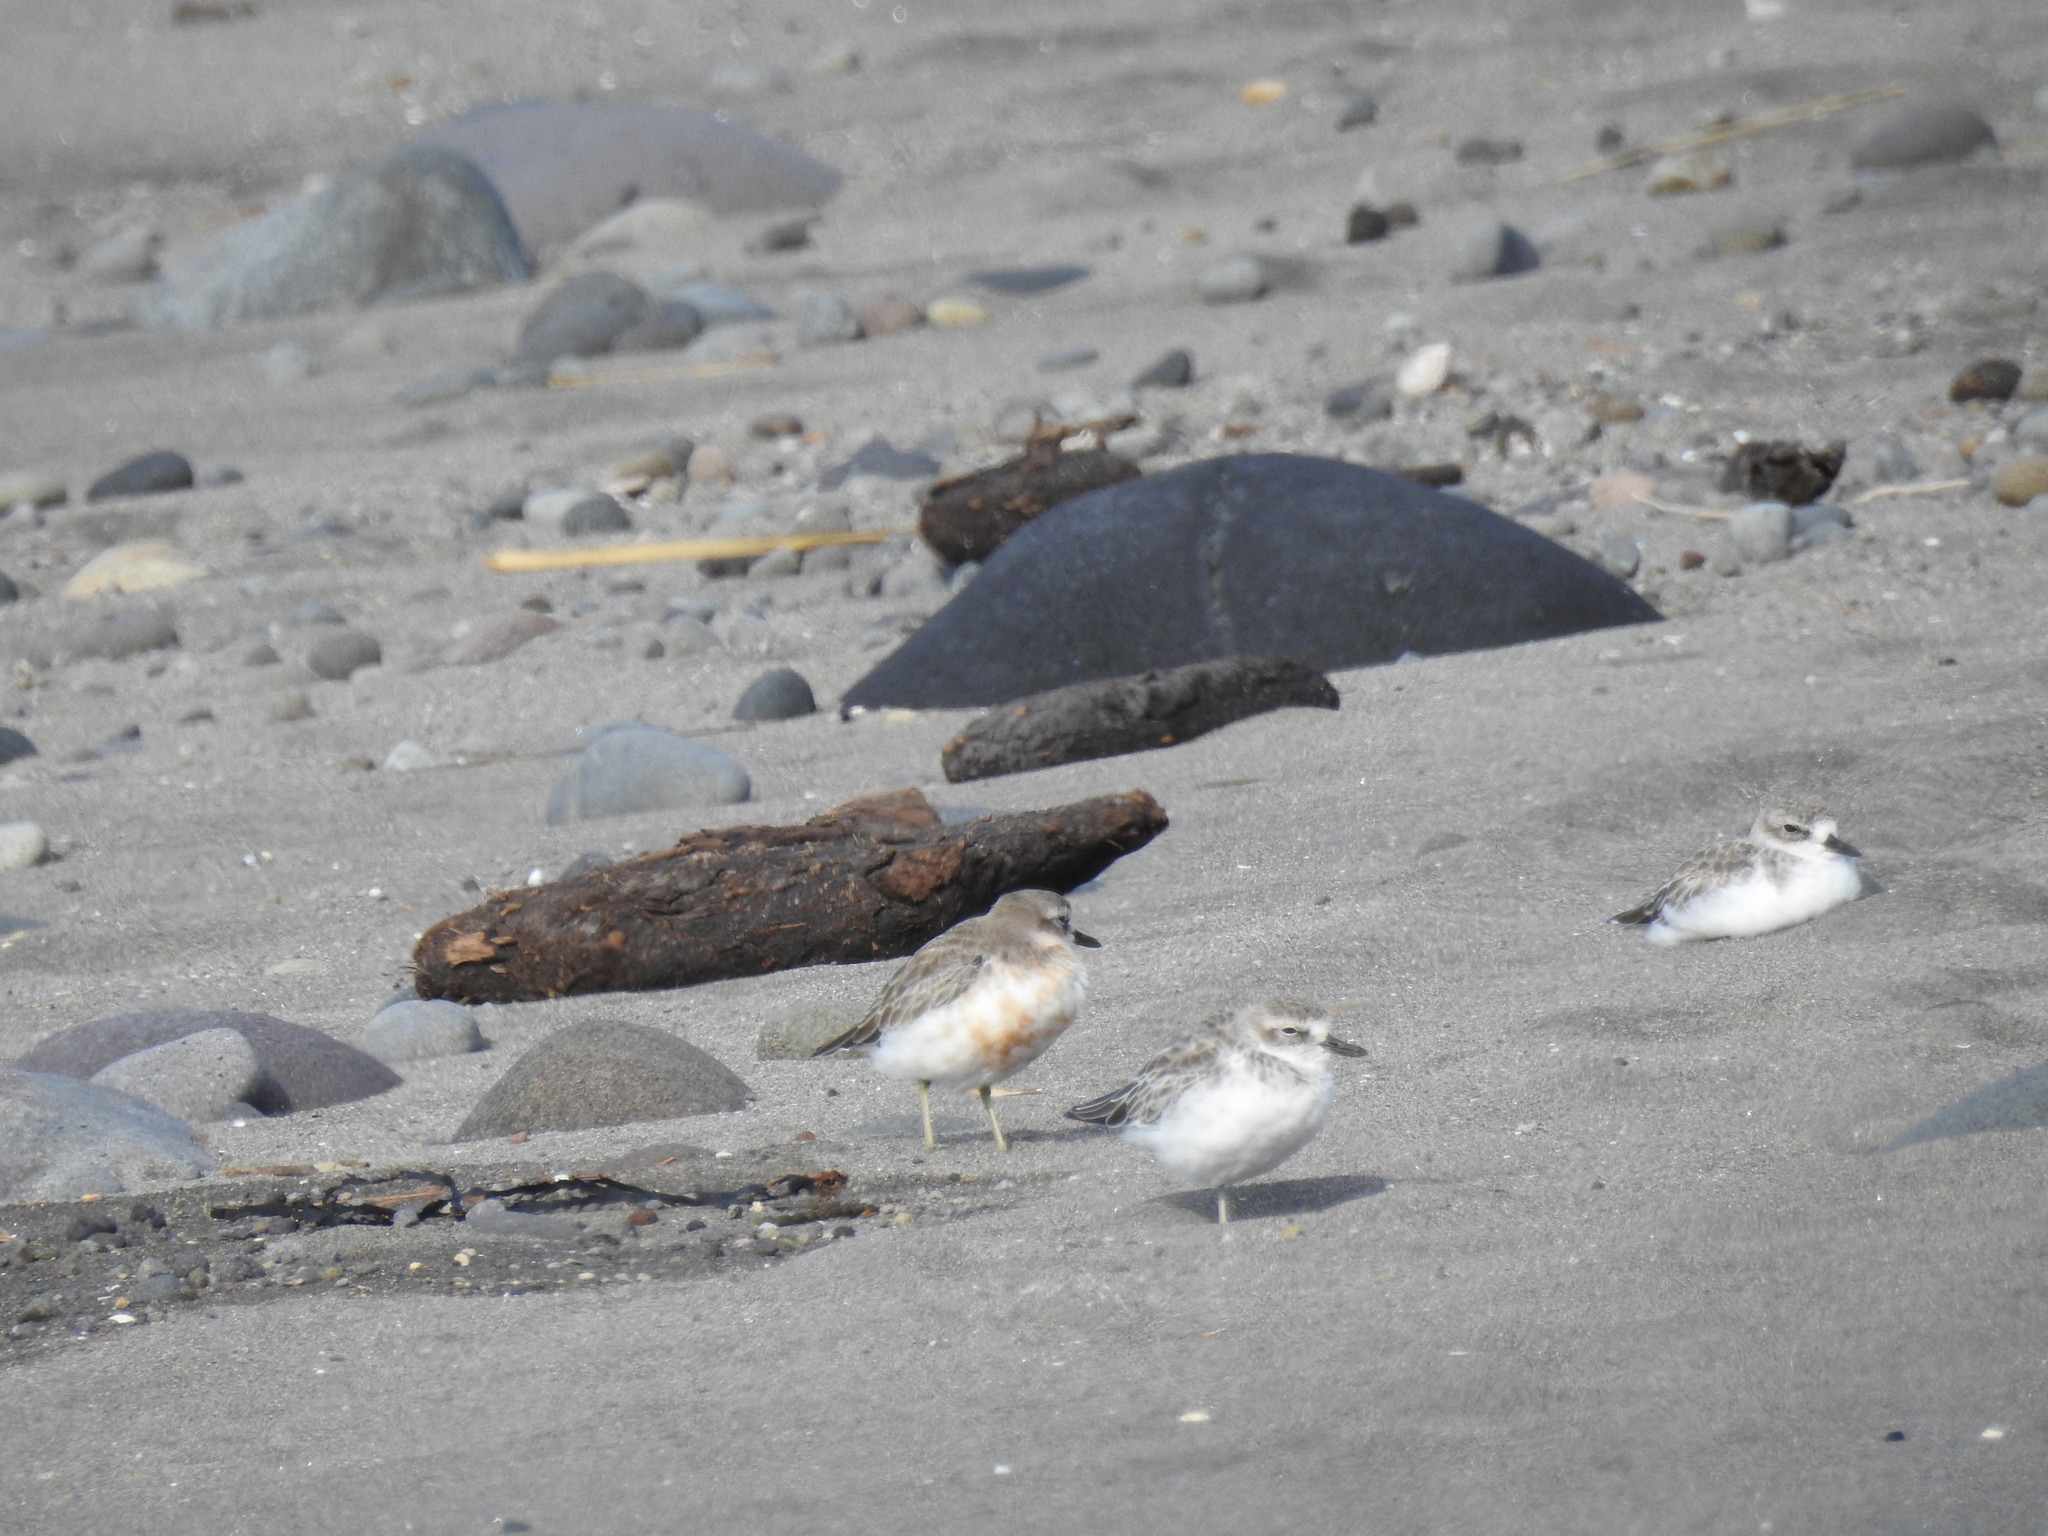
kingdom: Animalia
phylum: Chordata
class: Aves
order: Charadriiformes
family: Charadriidae
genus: Anarhynchus
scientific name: Anarhynchus
